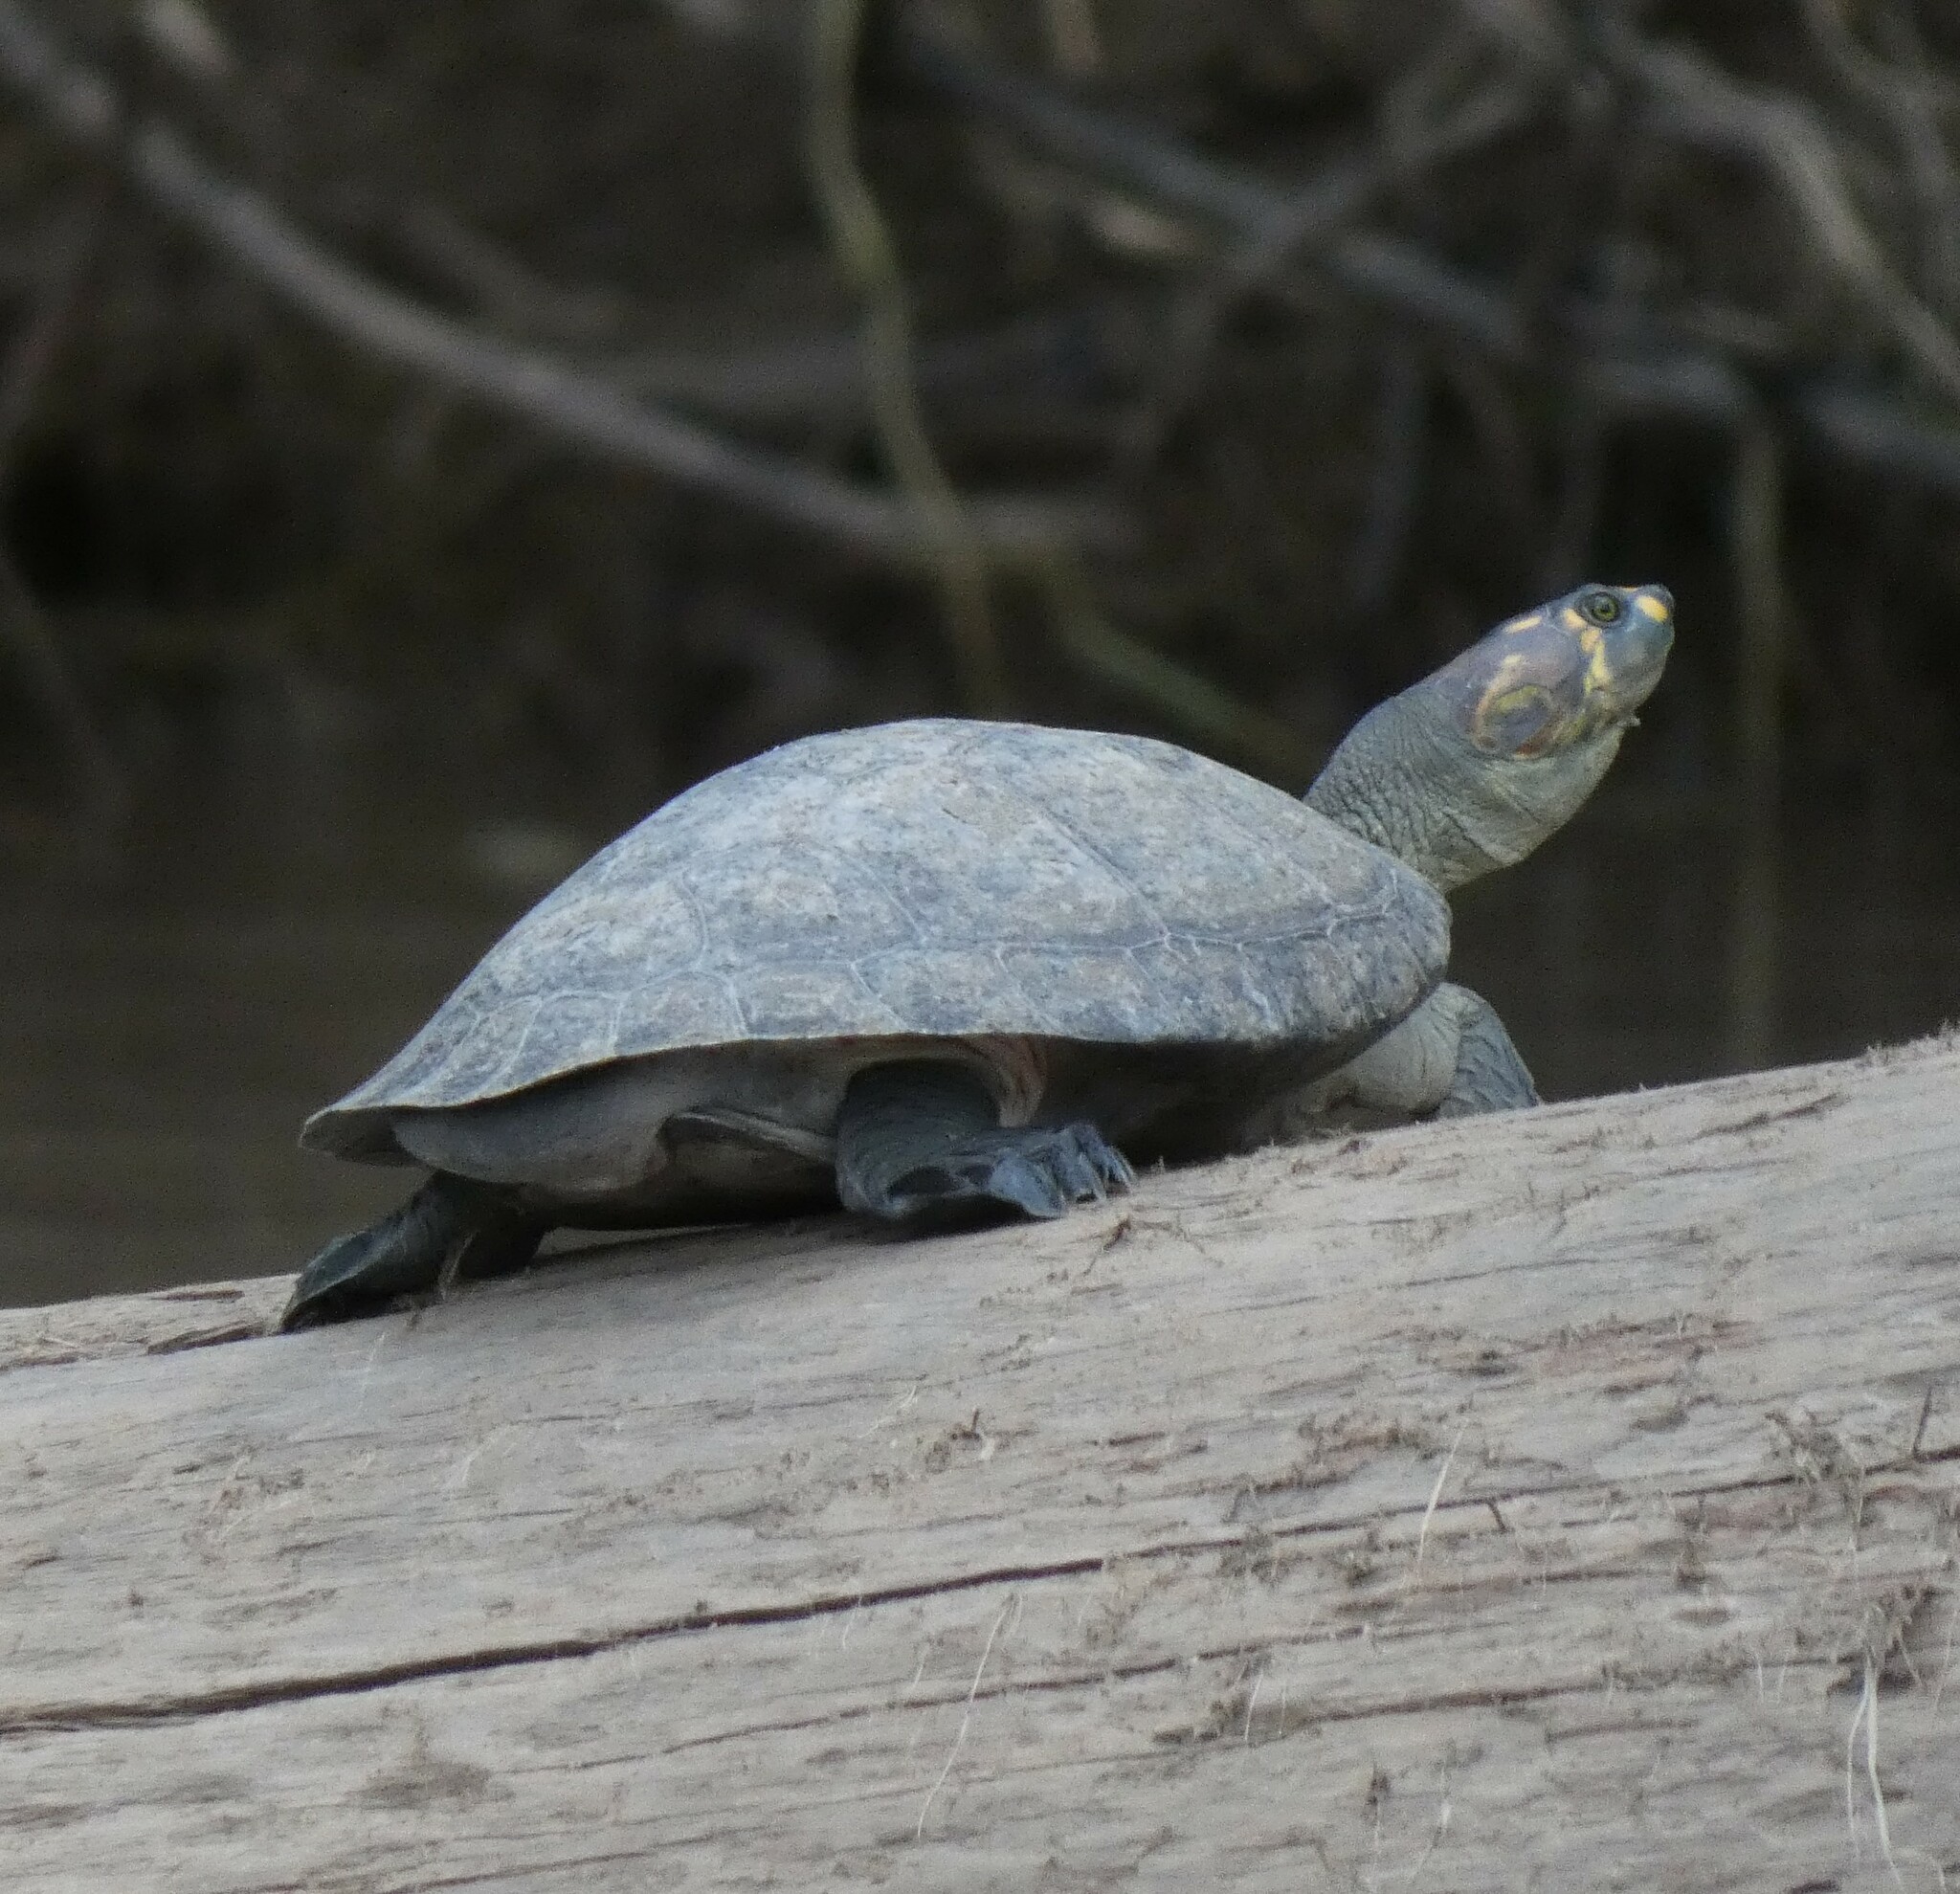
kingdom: Animalia
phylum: Chordata
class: Testudines
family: Podocnemididae
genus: Podocnemis
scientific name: Podocnemis unifilis
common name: Yellow-spotted amazon river turtle
